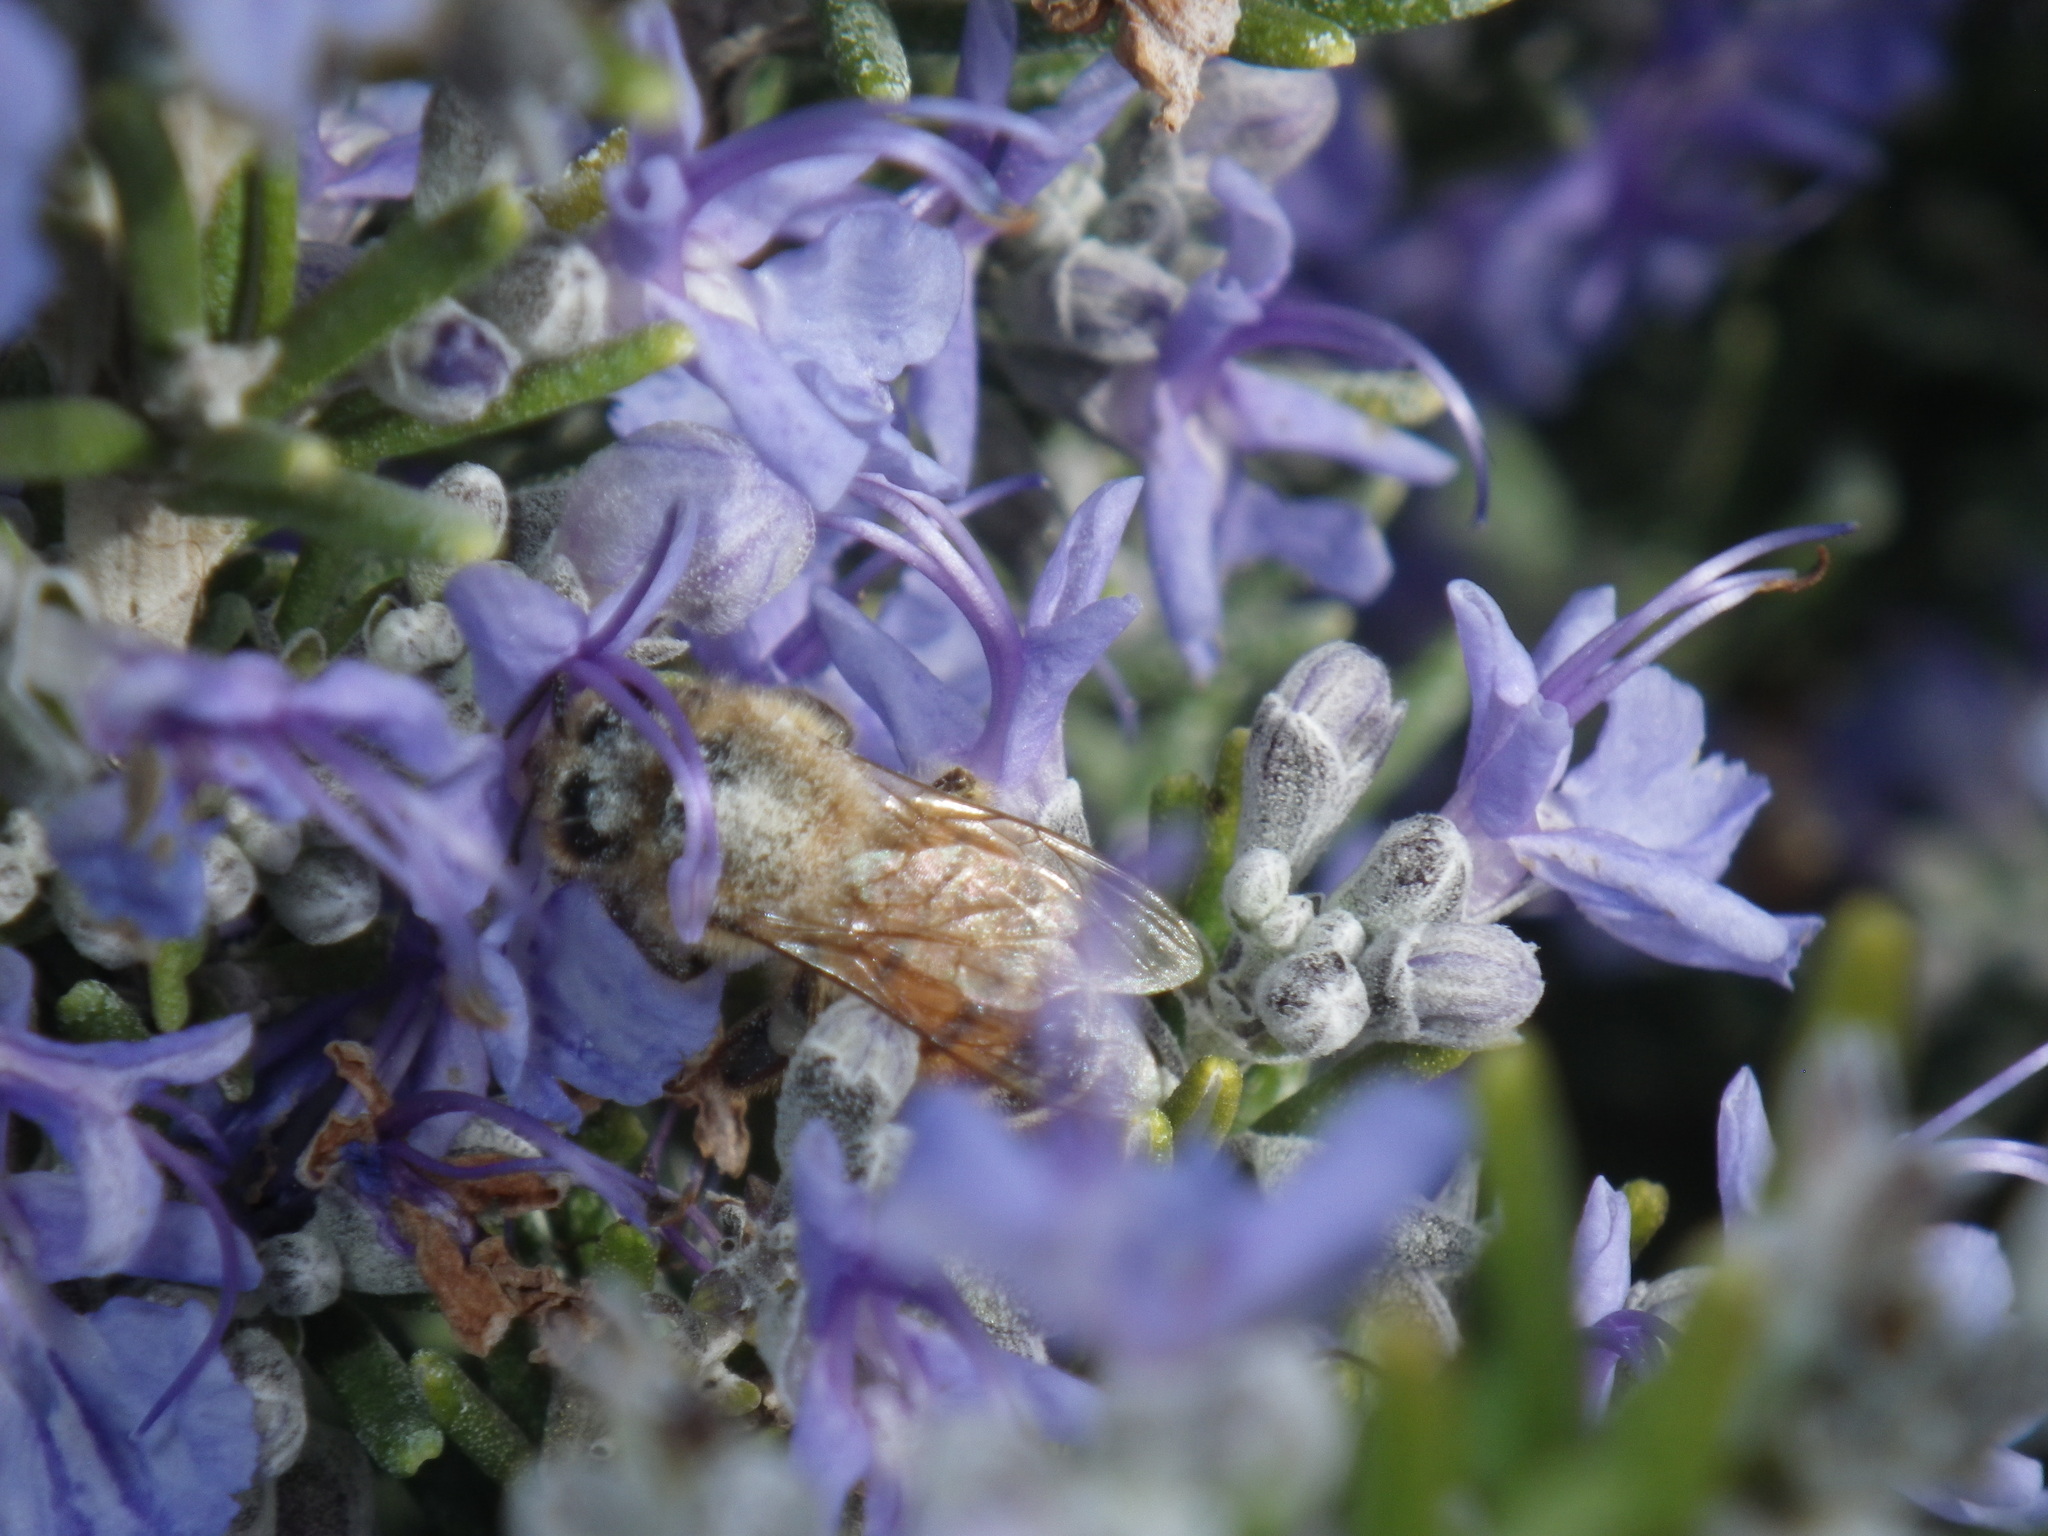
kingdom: Animalia
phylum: Arthropoda
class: Insecta
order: Hymenoptera
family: Apidae
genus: Apis
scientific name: Apis mellifera
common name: Honey bee
